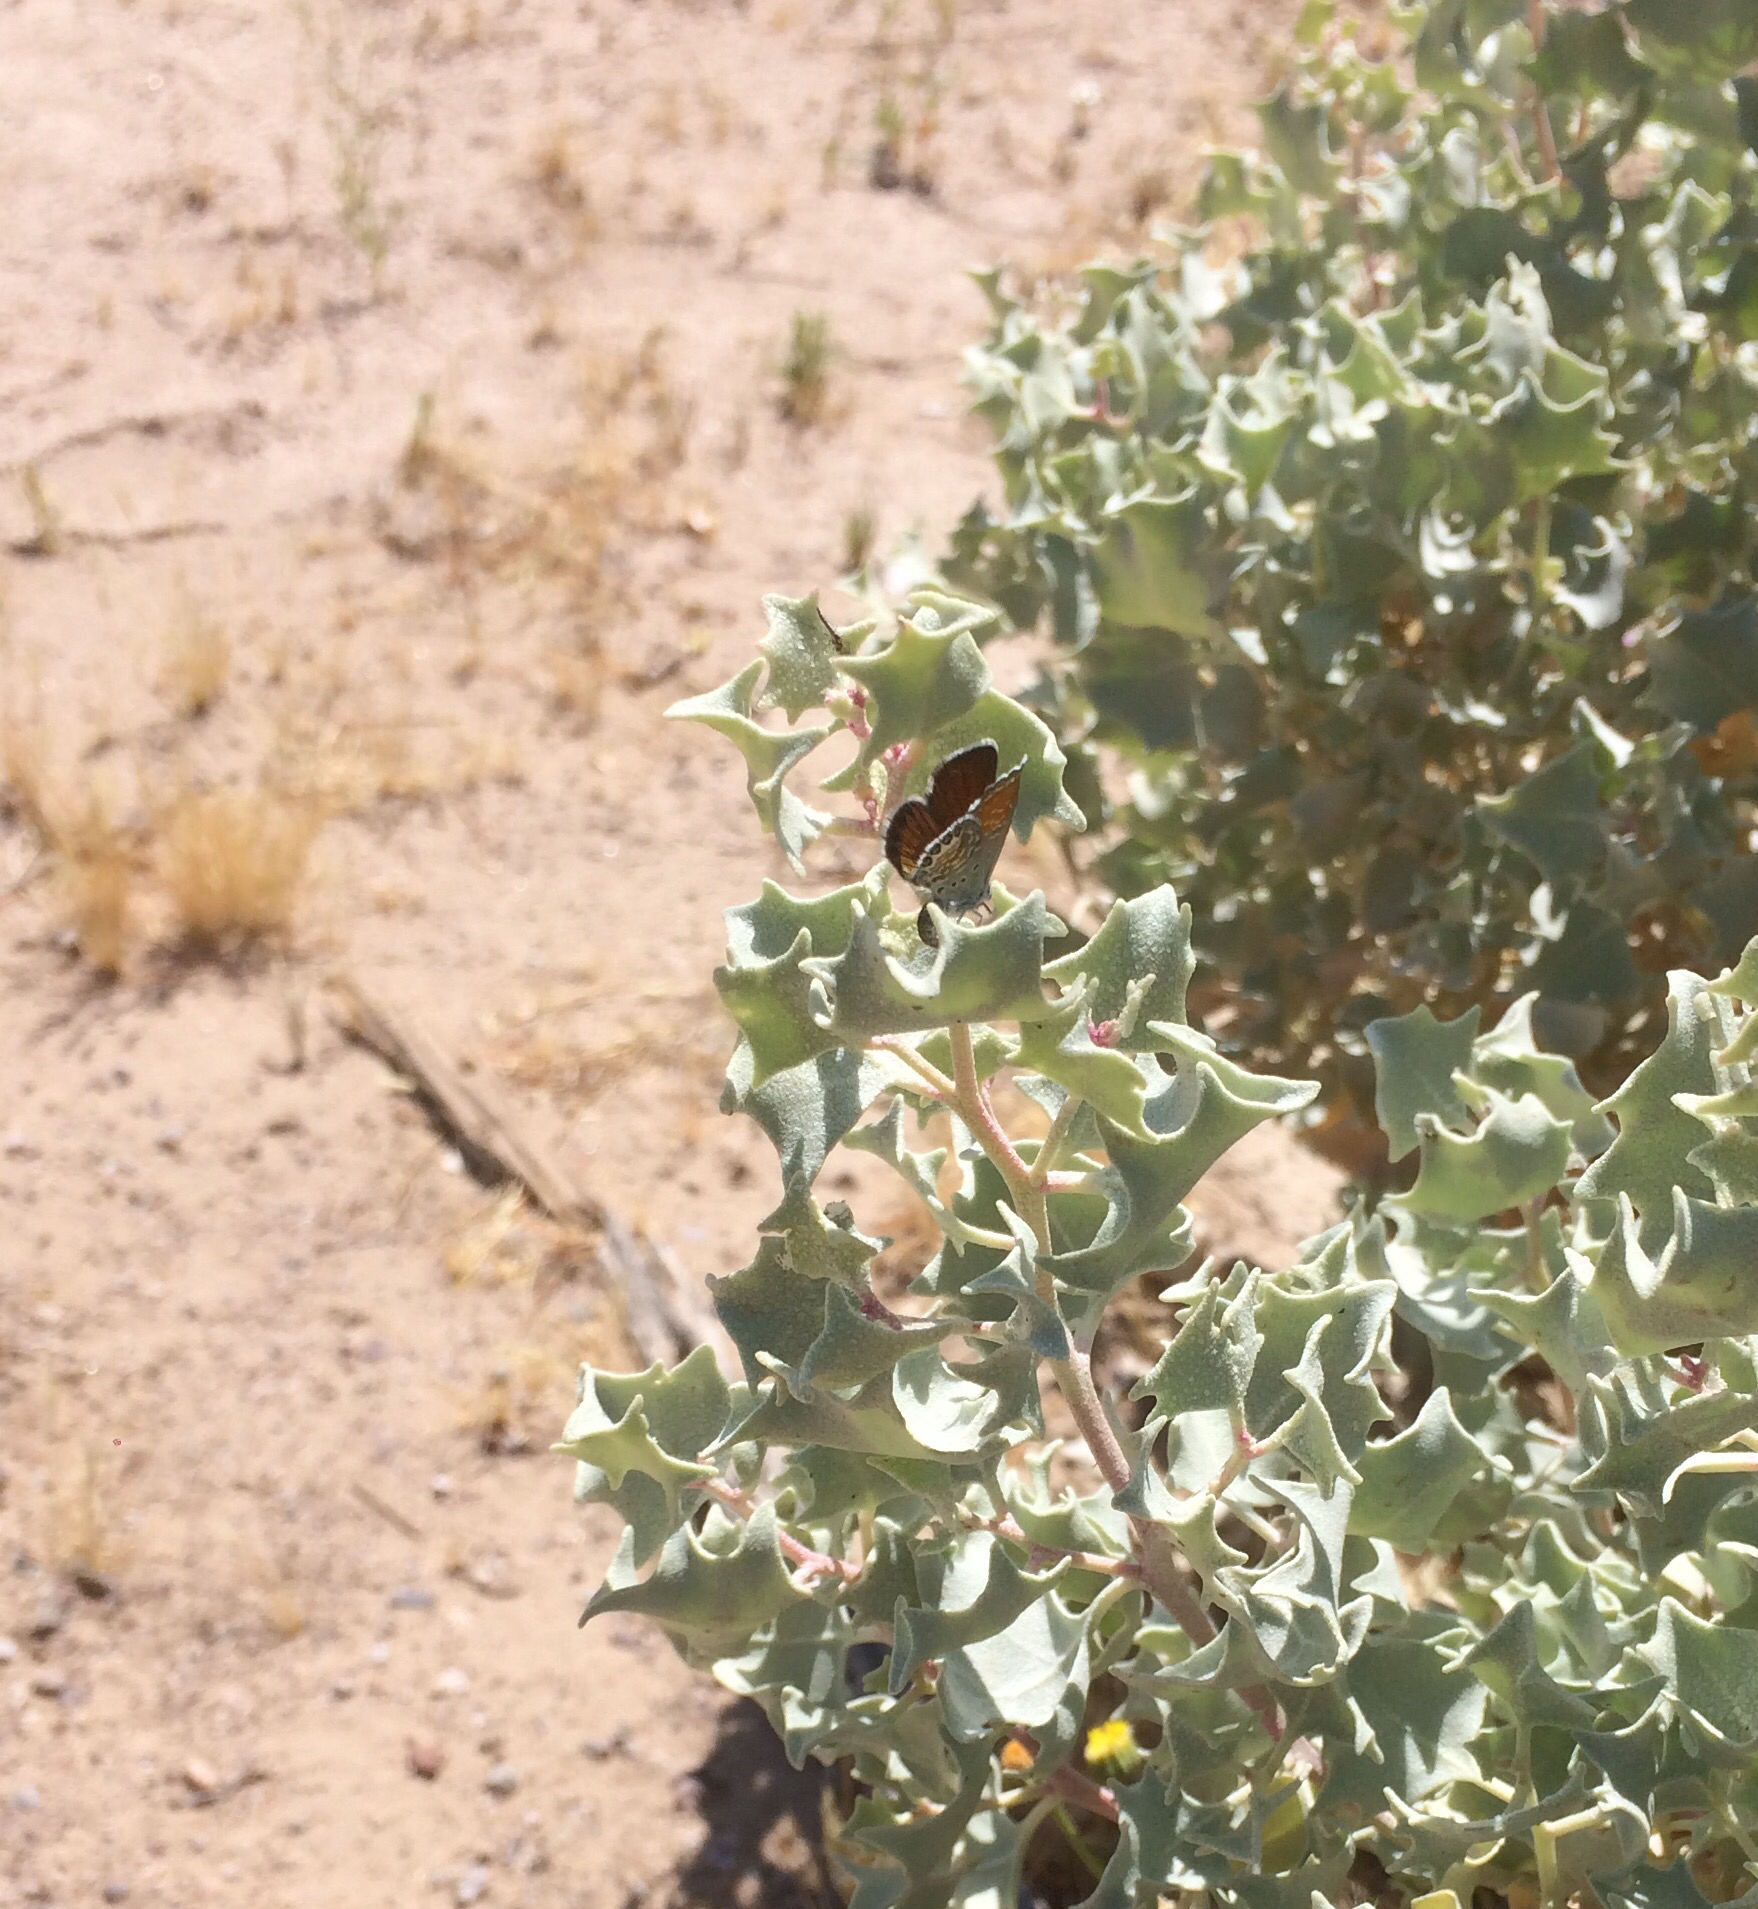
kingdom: Animalia
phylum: Arthropoda
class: Insecta
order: Lepidoptera
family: Lycaenidae
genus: Brephidium
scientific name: Brephidium exilis
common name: Pygmy blue
